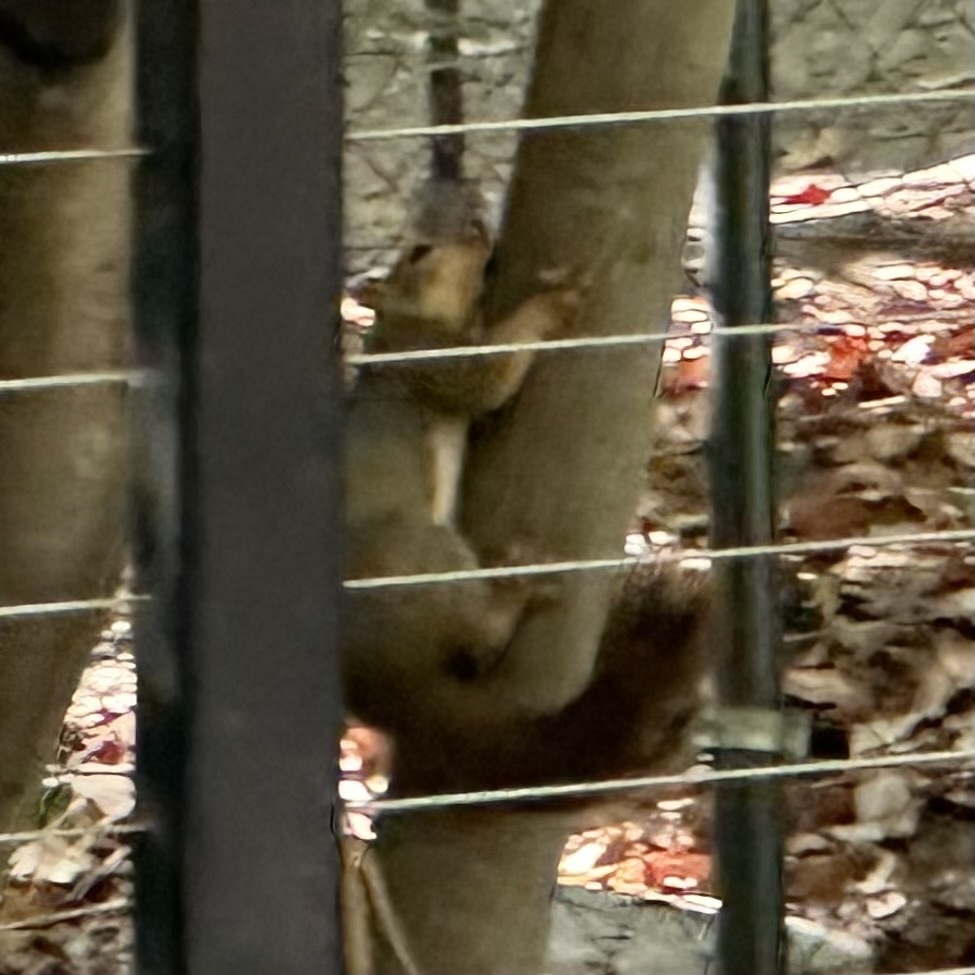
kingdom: Animalia
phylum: Chordata
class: Mammalia
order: Rodentia
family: Sciuridae
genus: Sciurus
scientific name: Sciurus griseus
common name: Western gray squirrel
